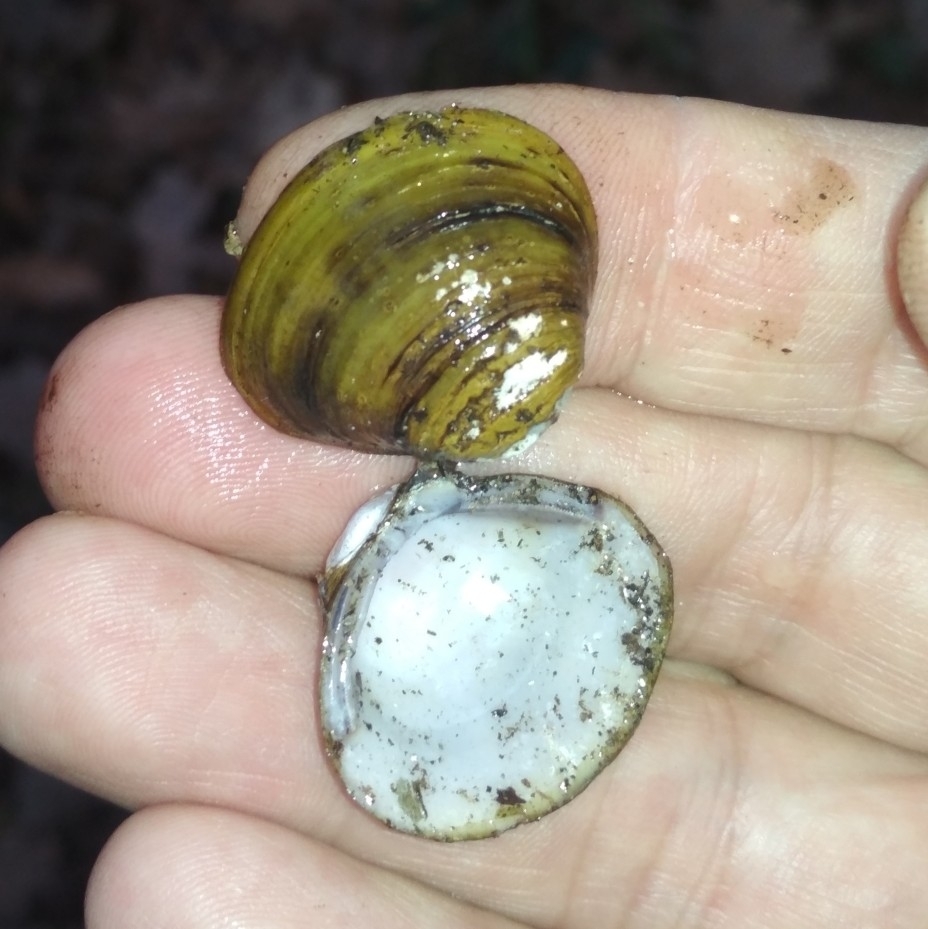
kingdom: Animalia
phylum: Mollusca
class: Bivalvia
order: Venerida
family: Cyrenidae
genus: Corbicula
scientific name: Corbicula fluminea
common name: Asian clam
